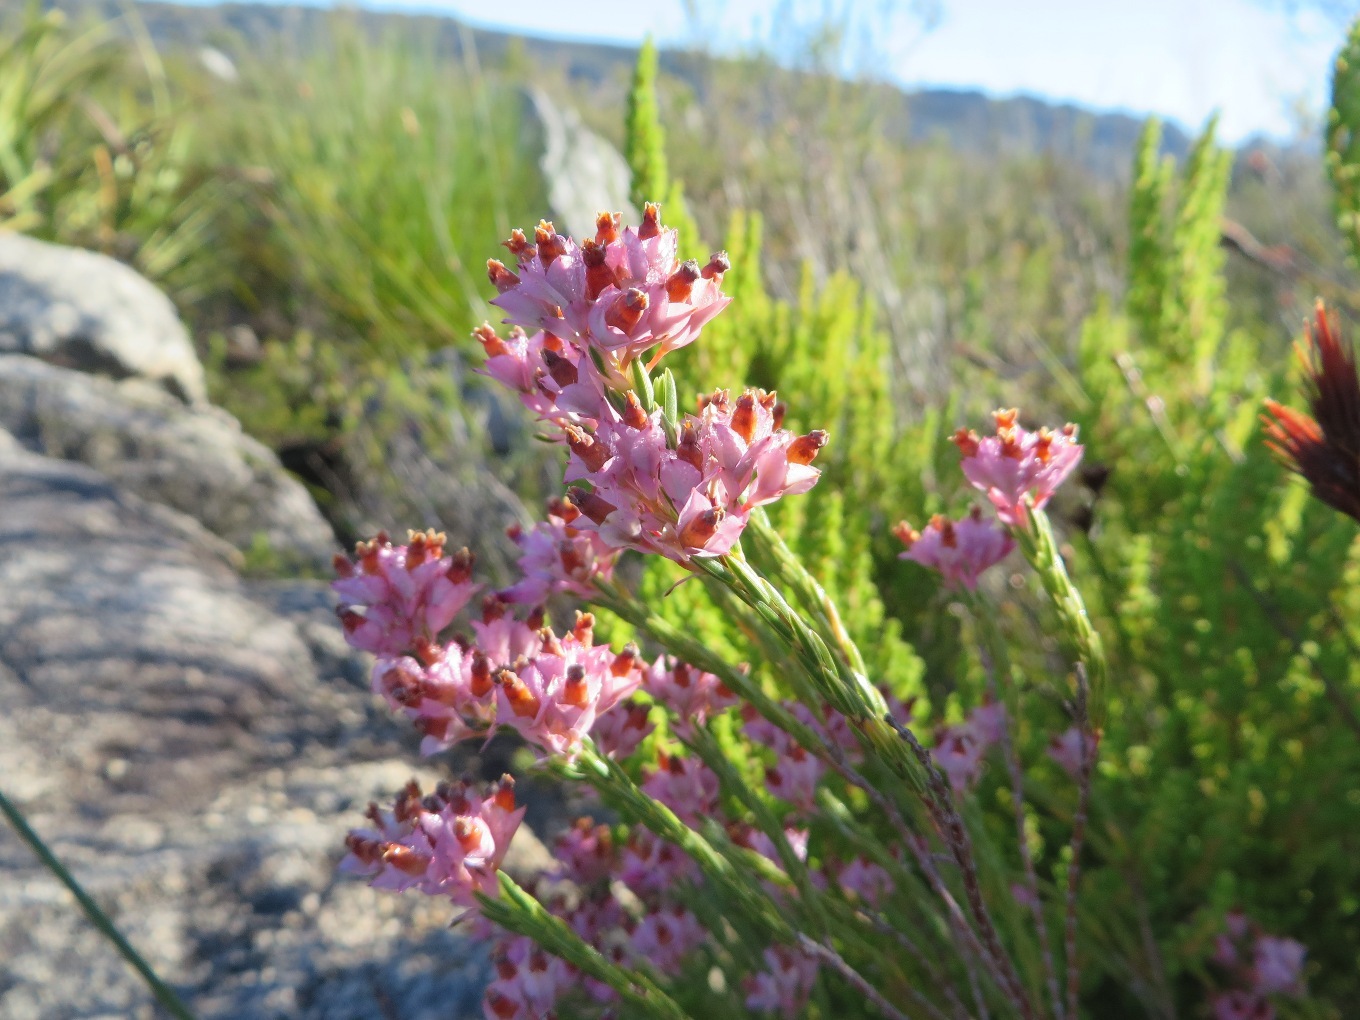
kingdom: Plantae
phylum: Tracheophyta
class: Magnoliopsida
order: Ericales
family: Ericaceae
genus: Erica
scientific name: Erica taxifolia
